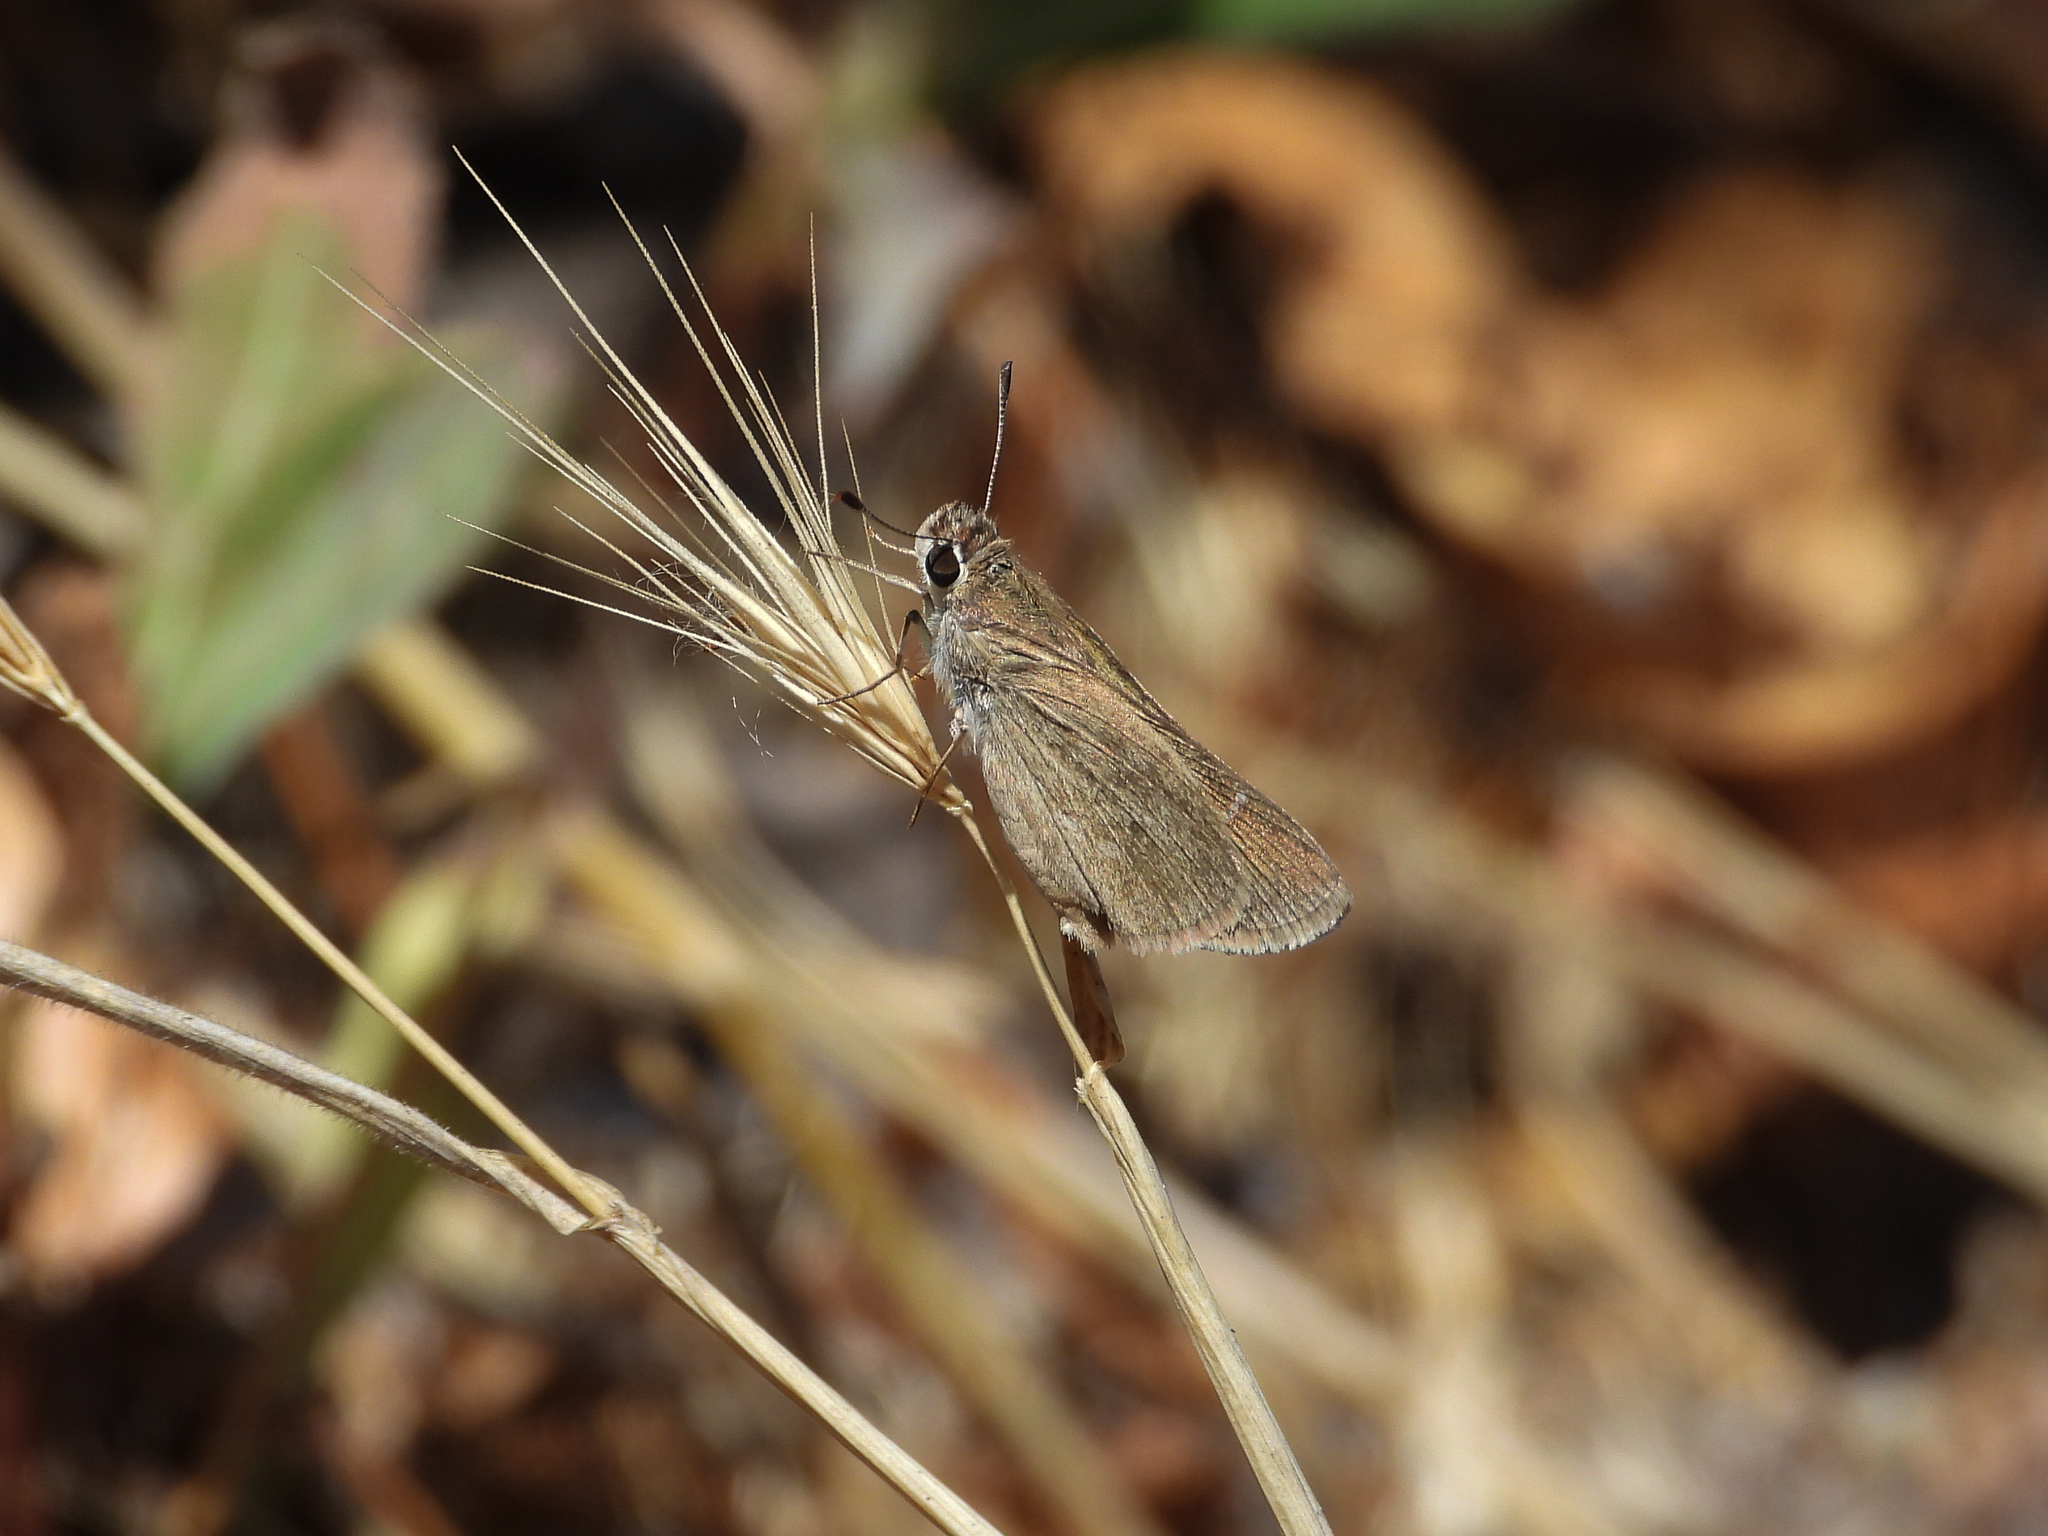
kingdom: Animalia
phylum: Arthropoda
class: Insecta
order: Lepidoptera
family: Hesperiidae
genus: Lerodea
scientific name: Lerodea eufala
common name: Eufala skipper
